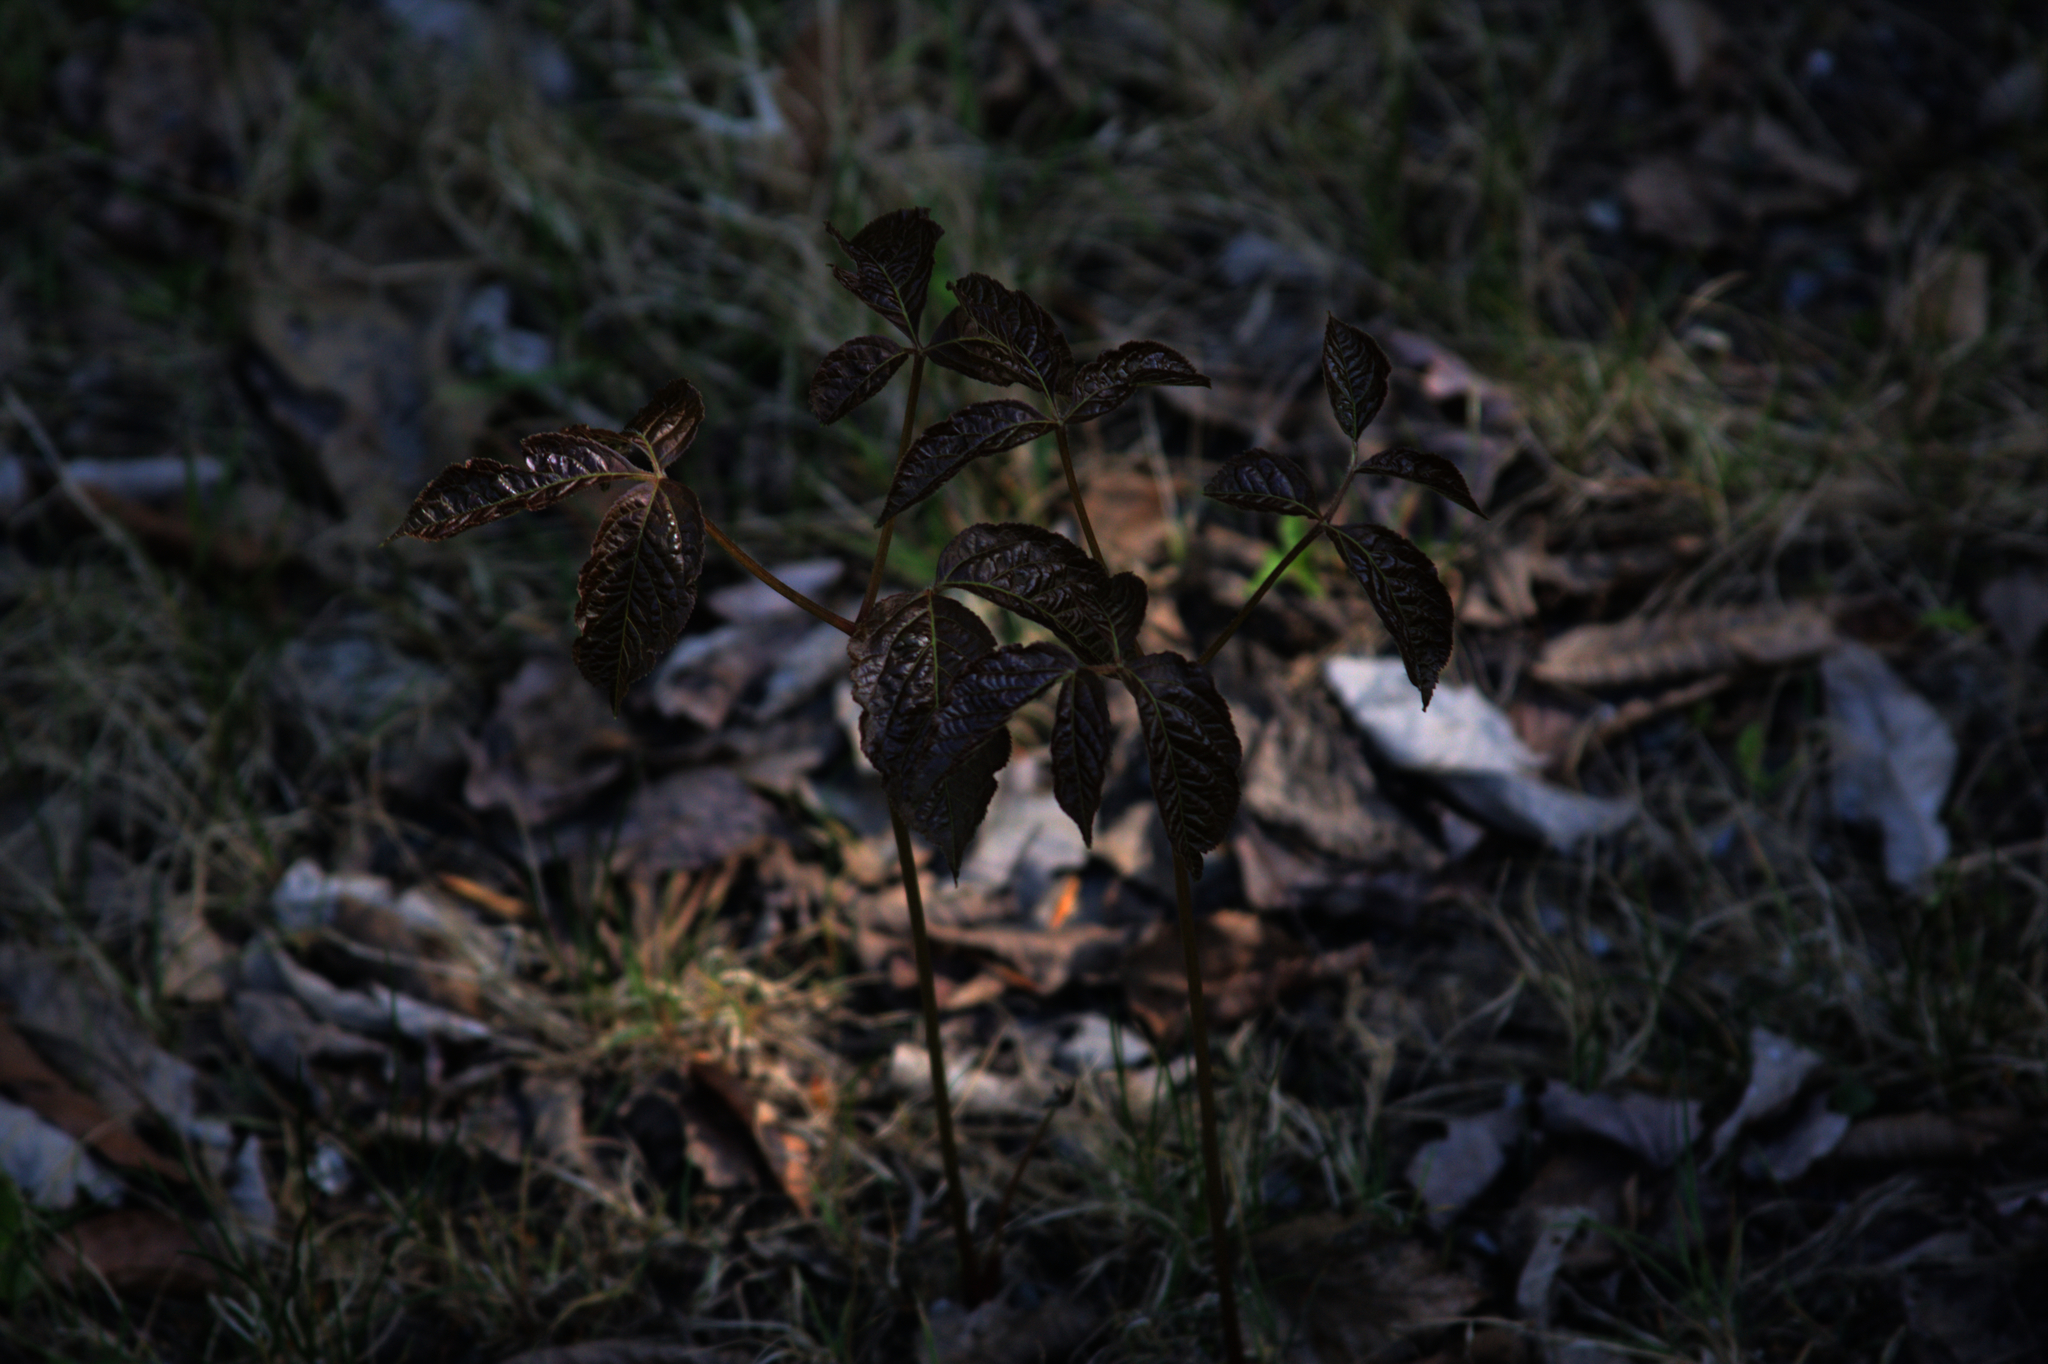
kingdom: Plantae
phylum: Tracheophyta
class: Magnoliopsida
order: Apiales
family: Araliaceae
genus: Aralia
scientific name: Aralia nudicaulis
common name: Wild sarsaparilla
